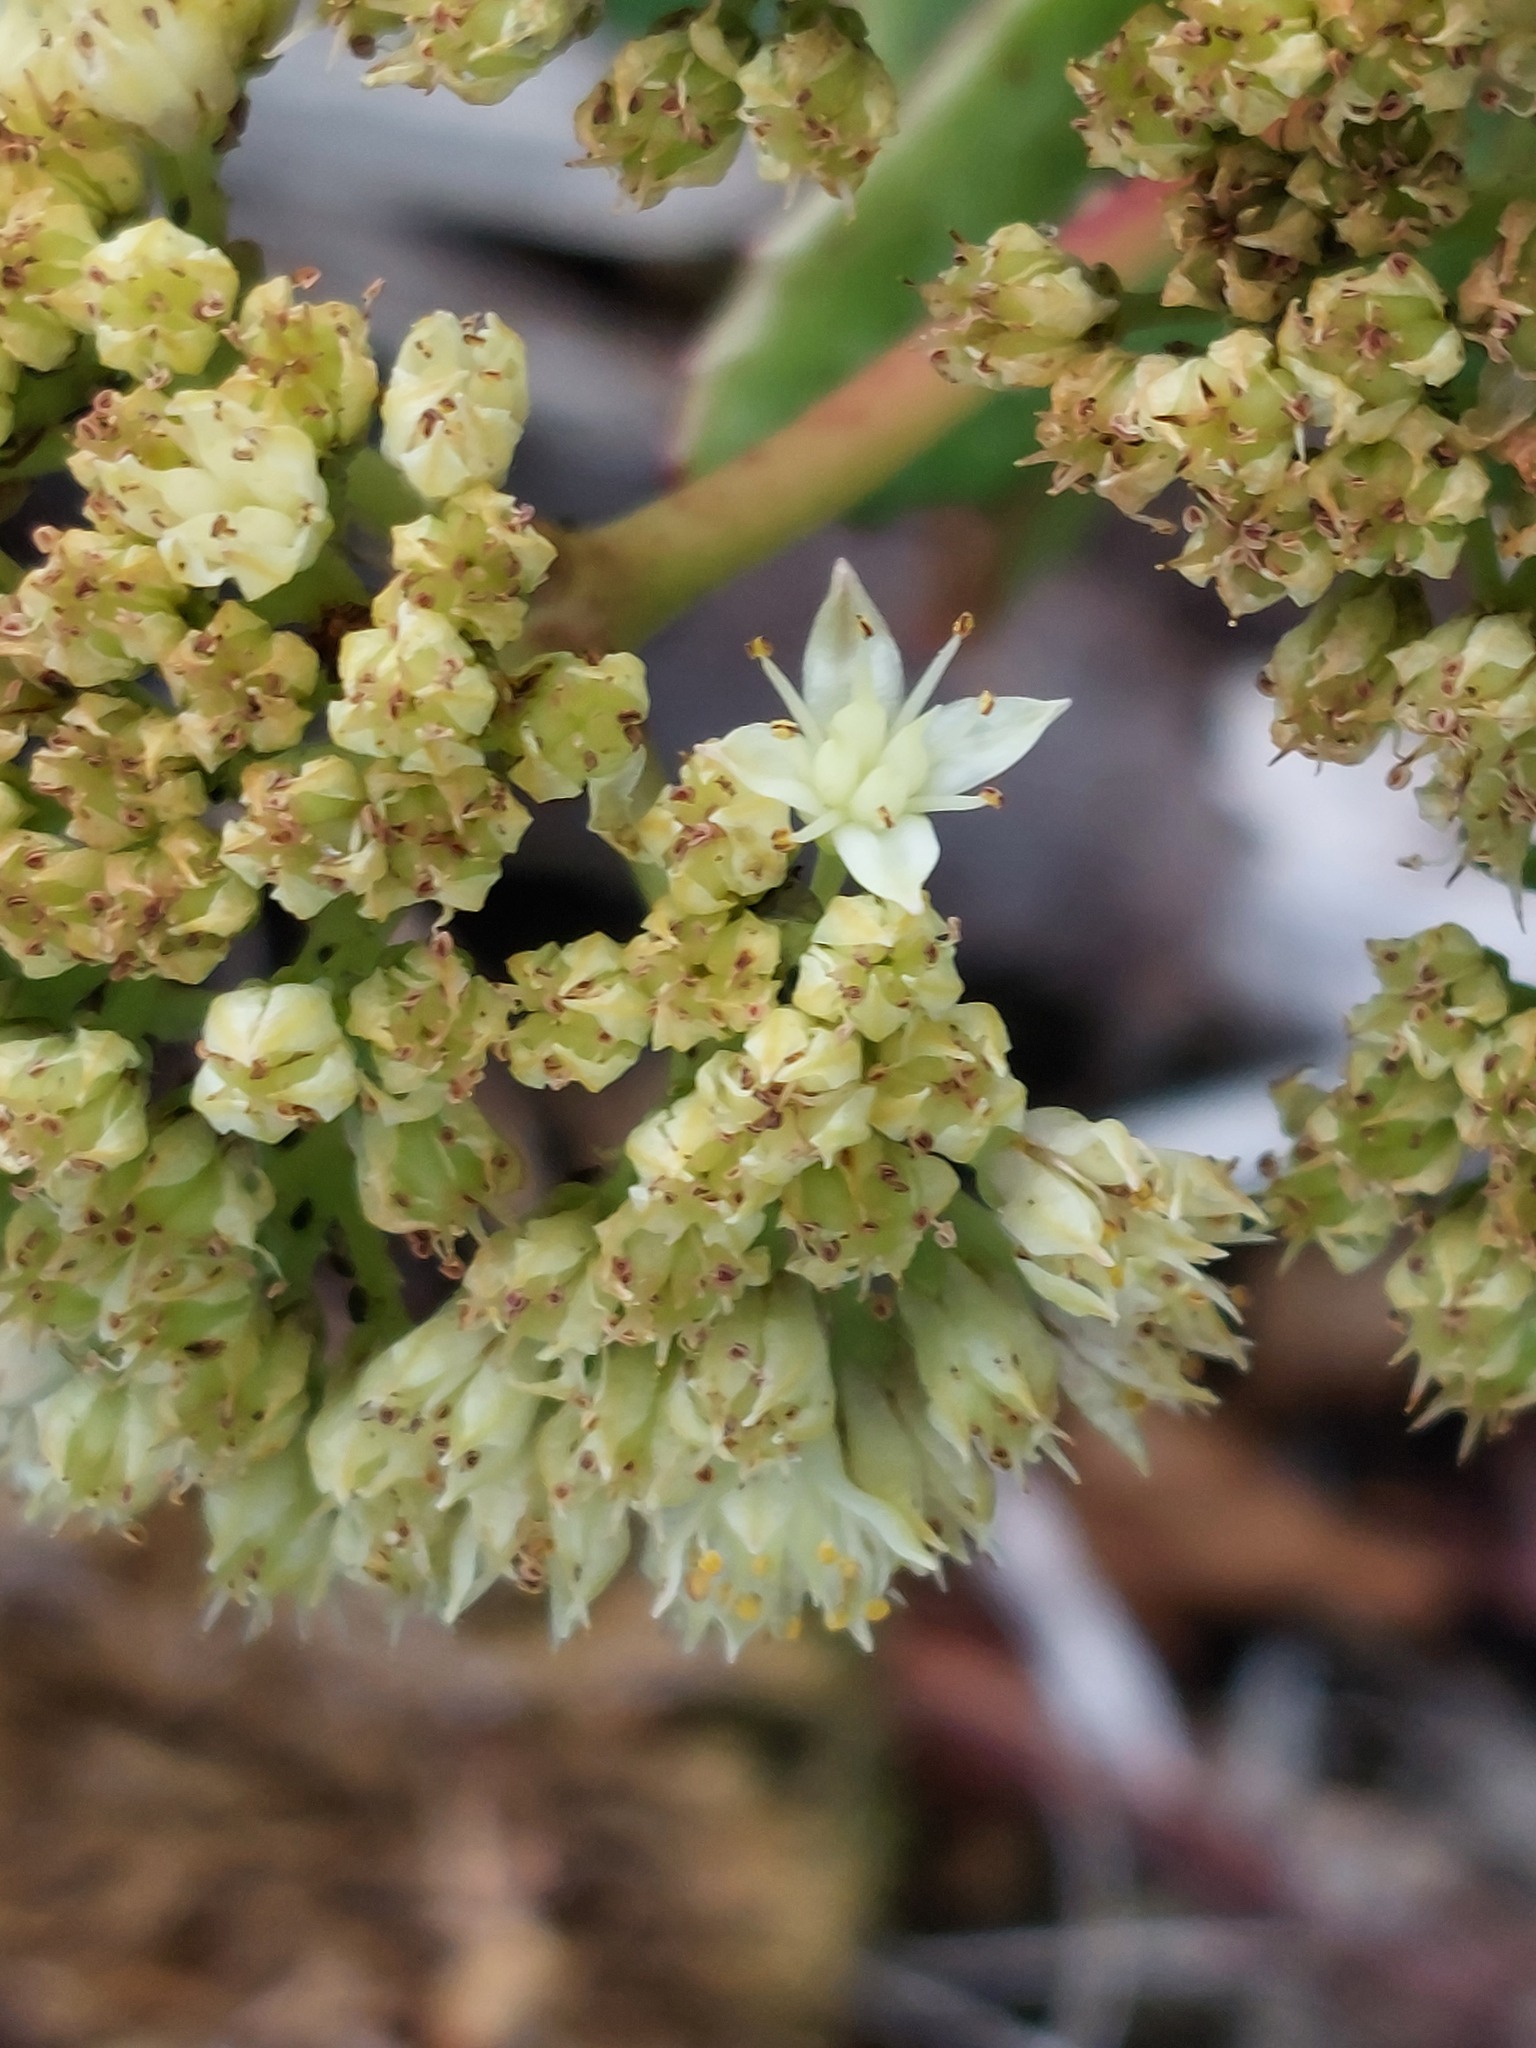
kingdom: Plantae
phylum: Tracheophyta
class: Magnoliopsida
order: Saxifragales
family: Crassulaceae
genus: Hylotelephium
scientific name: Hylotelephium maximum
